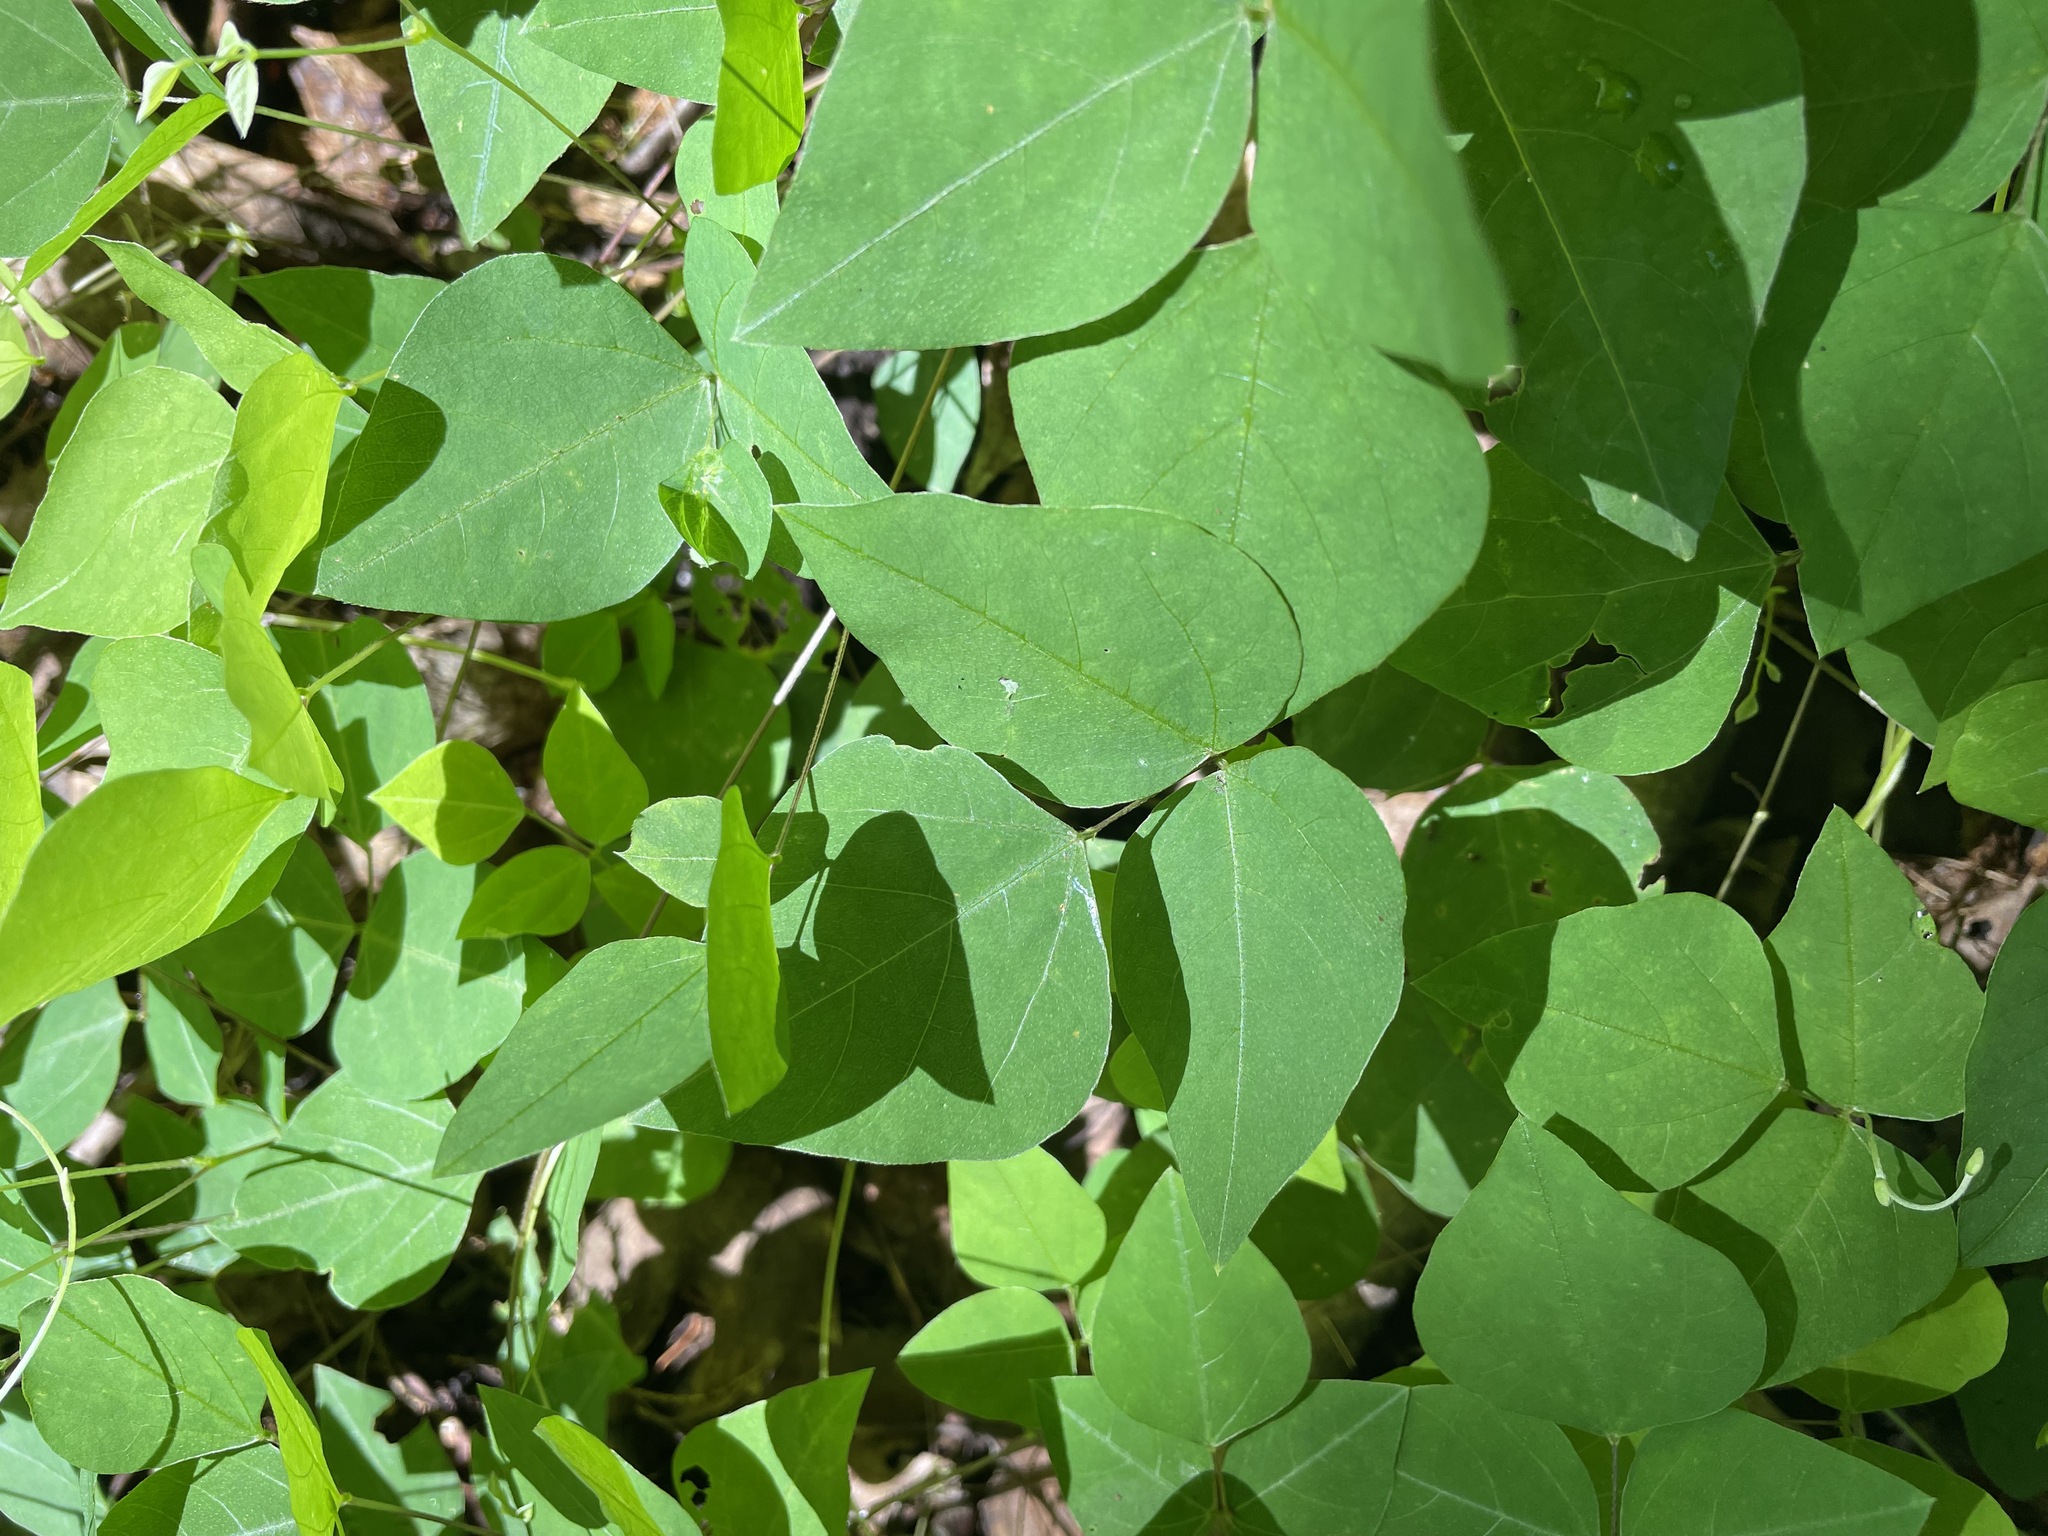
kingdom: Plantae
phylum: Tracheophyta
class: Magnoliopsida
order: Fabales
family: Fabaceae
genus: Amphicarpaea
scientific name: Amphicarpaea bracteata
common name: American hog peanut
